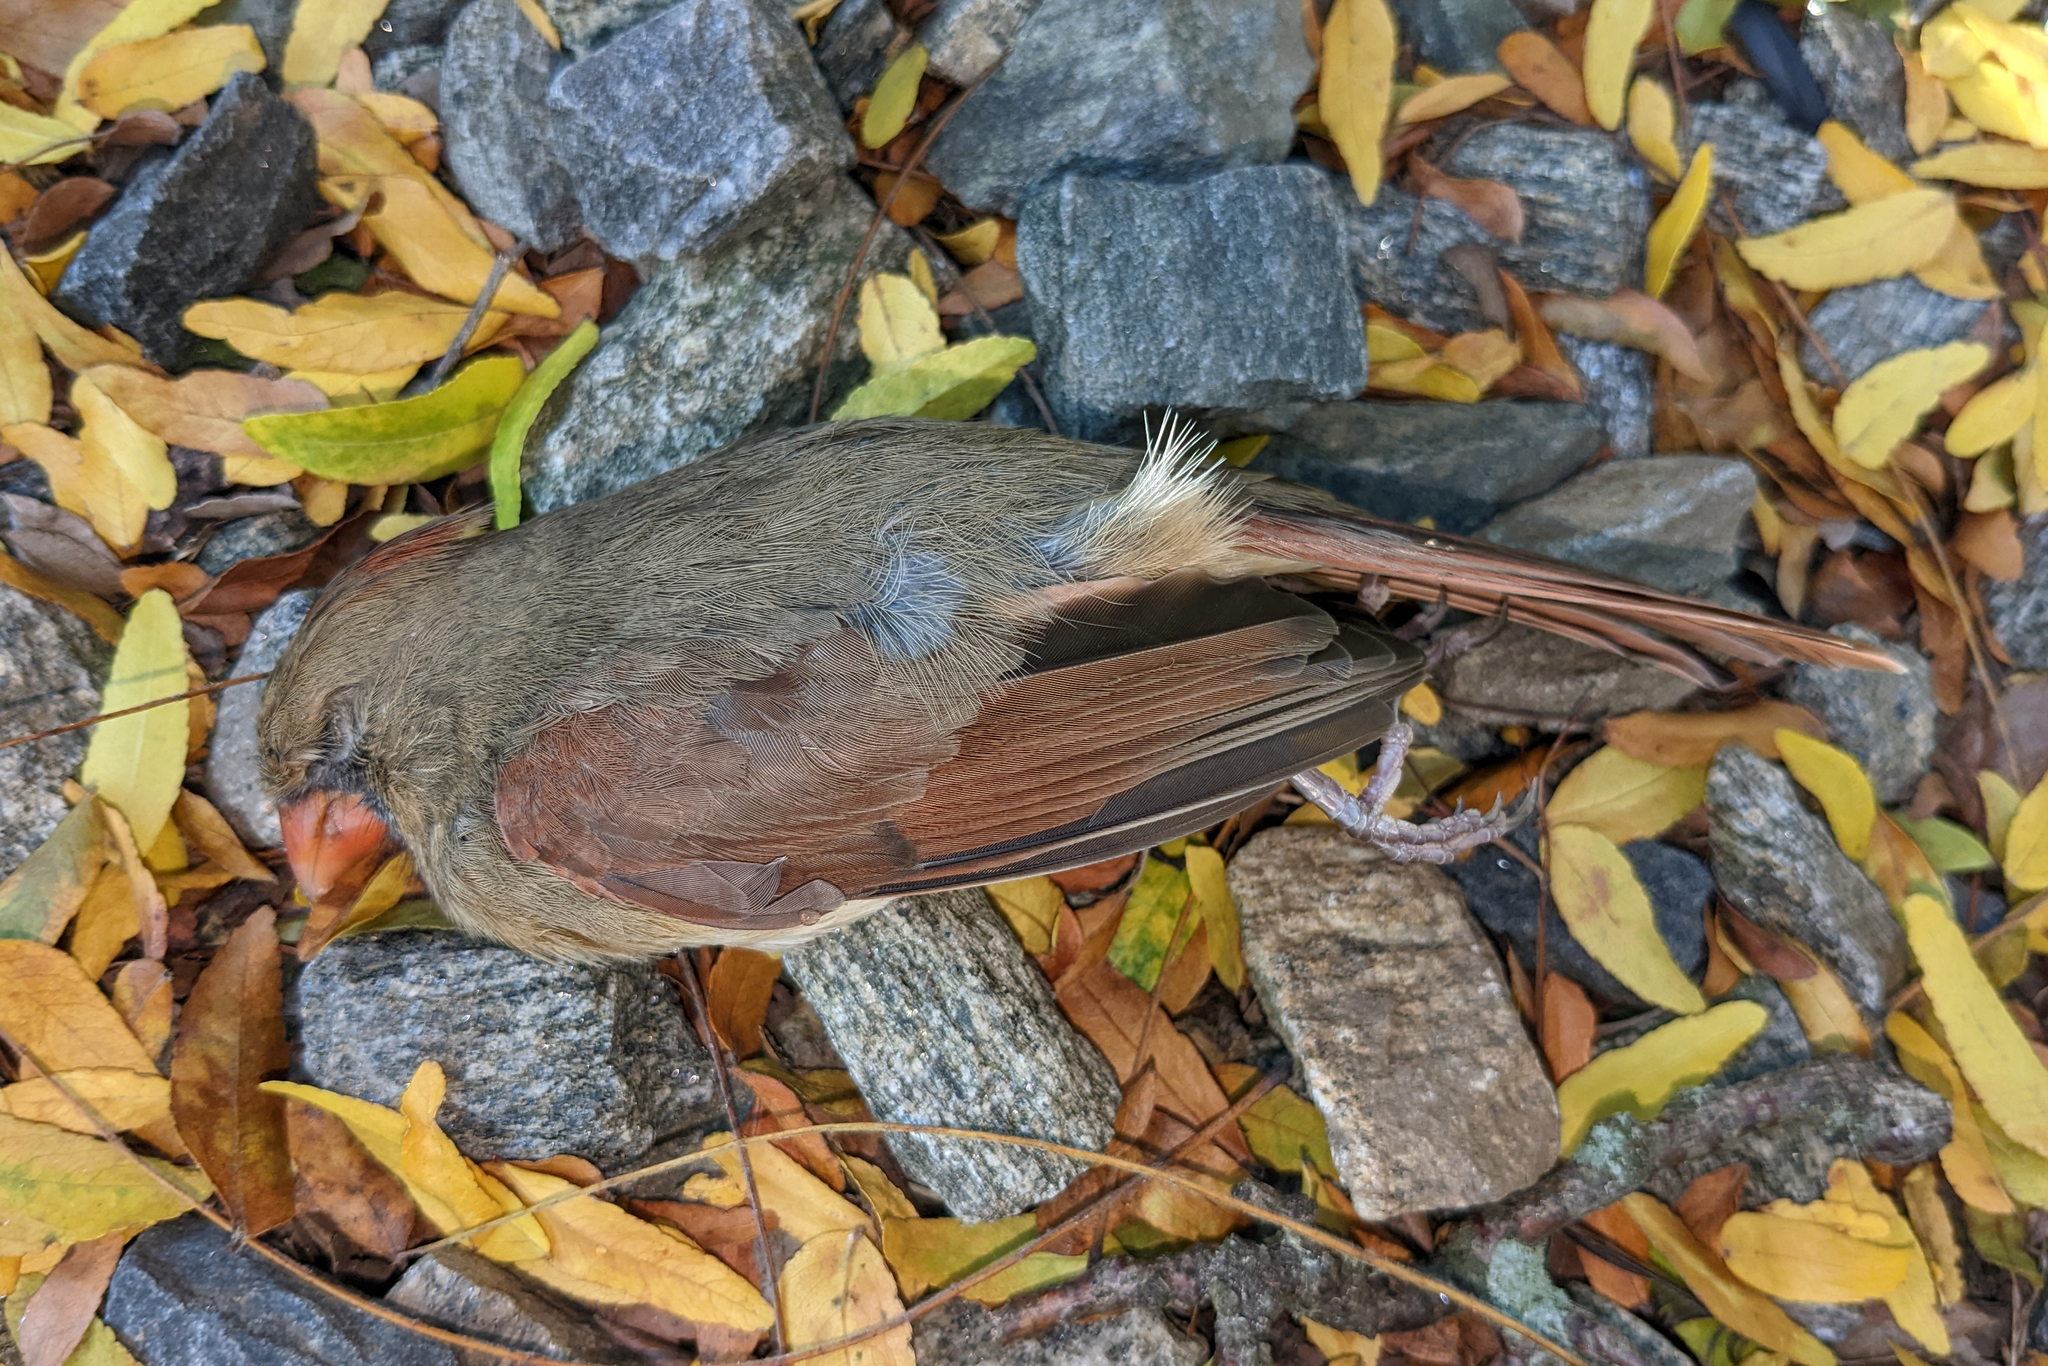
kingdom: Animalia
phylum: Chordata
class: Aves
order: Passeriformes
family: Cardinalidae
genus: Cardinalis
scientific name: Cardinalis cardinalis
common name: Northern cardinal
